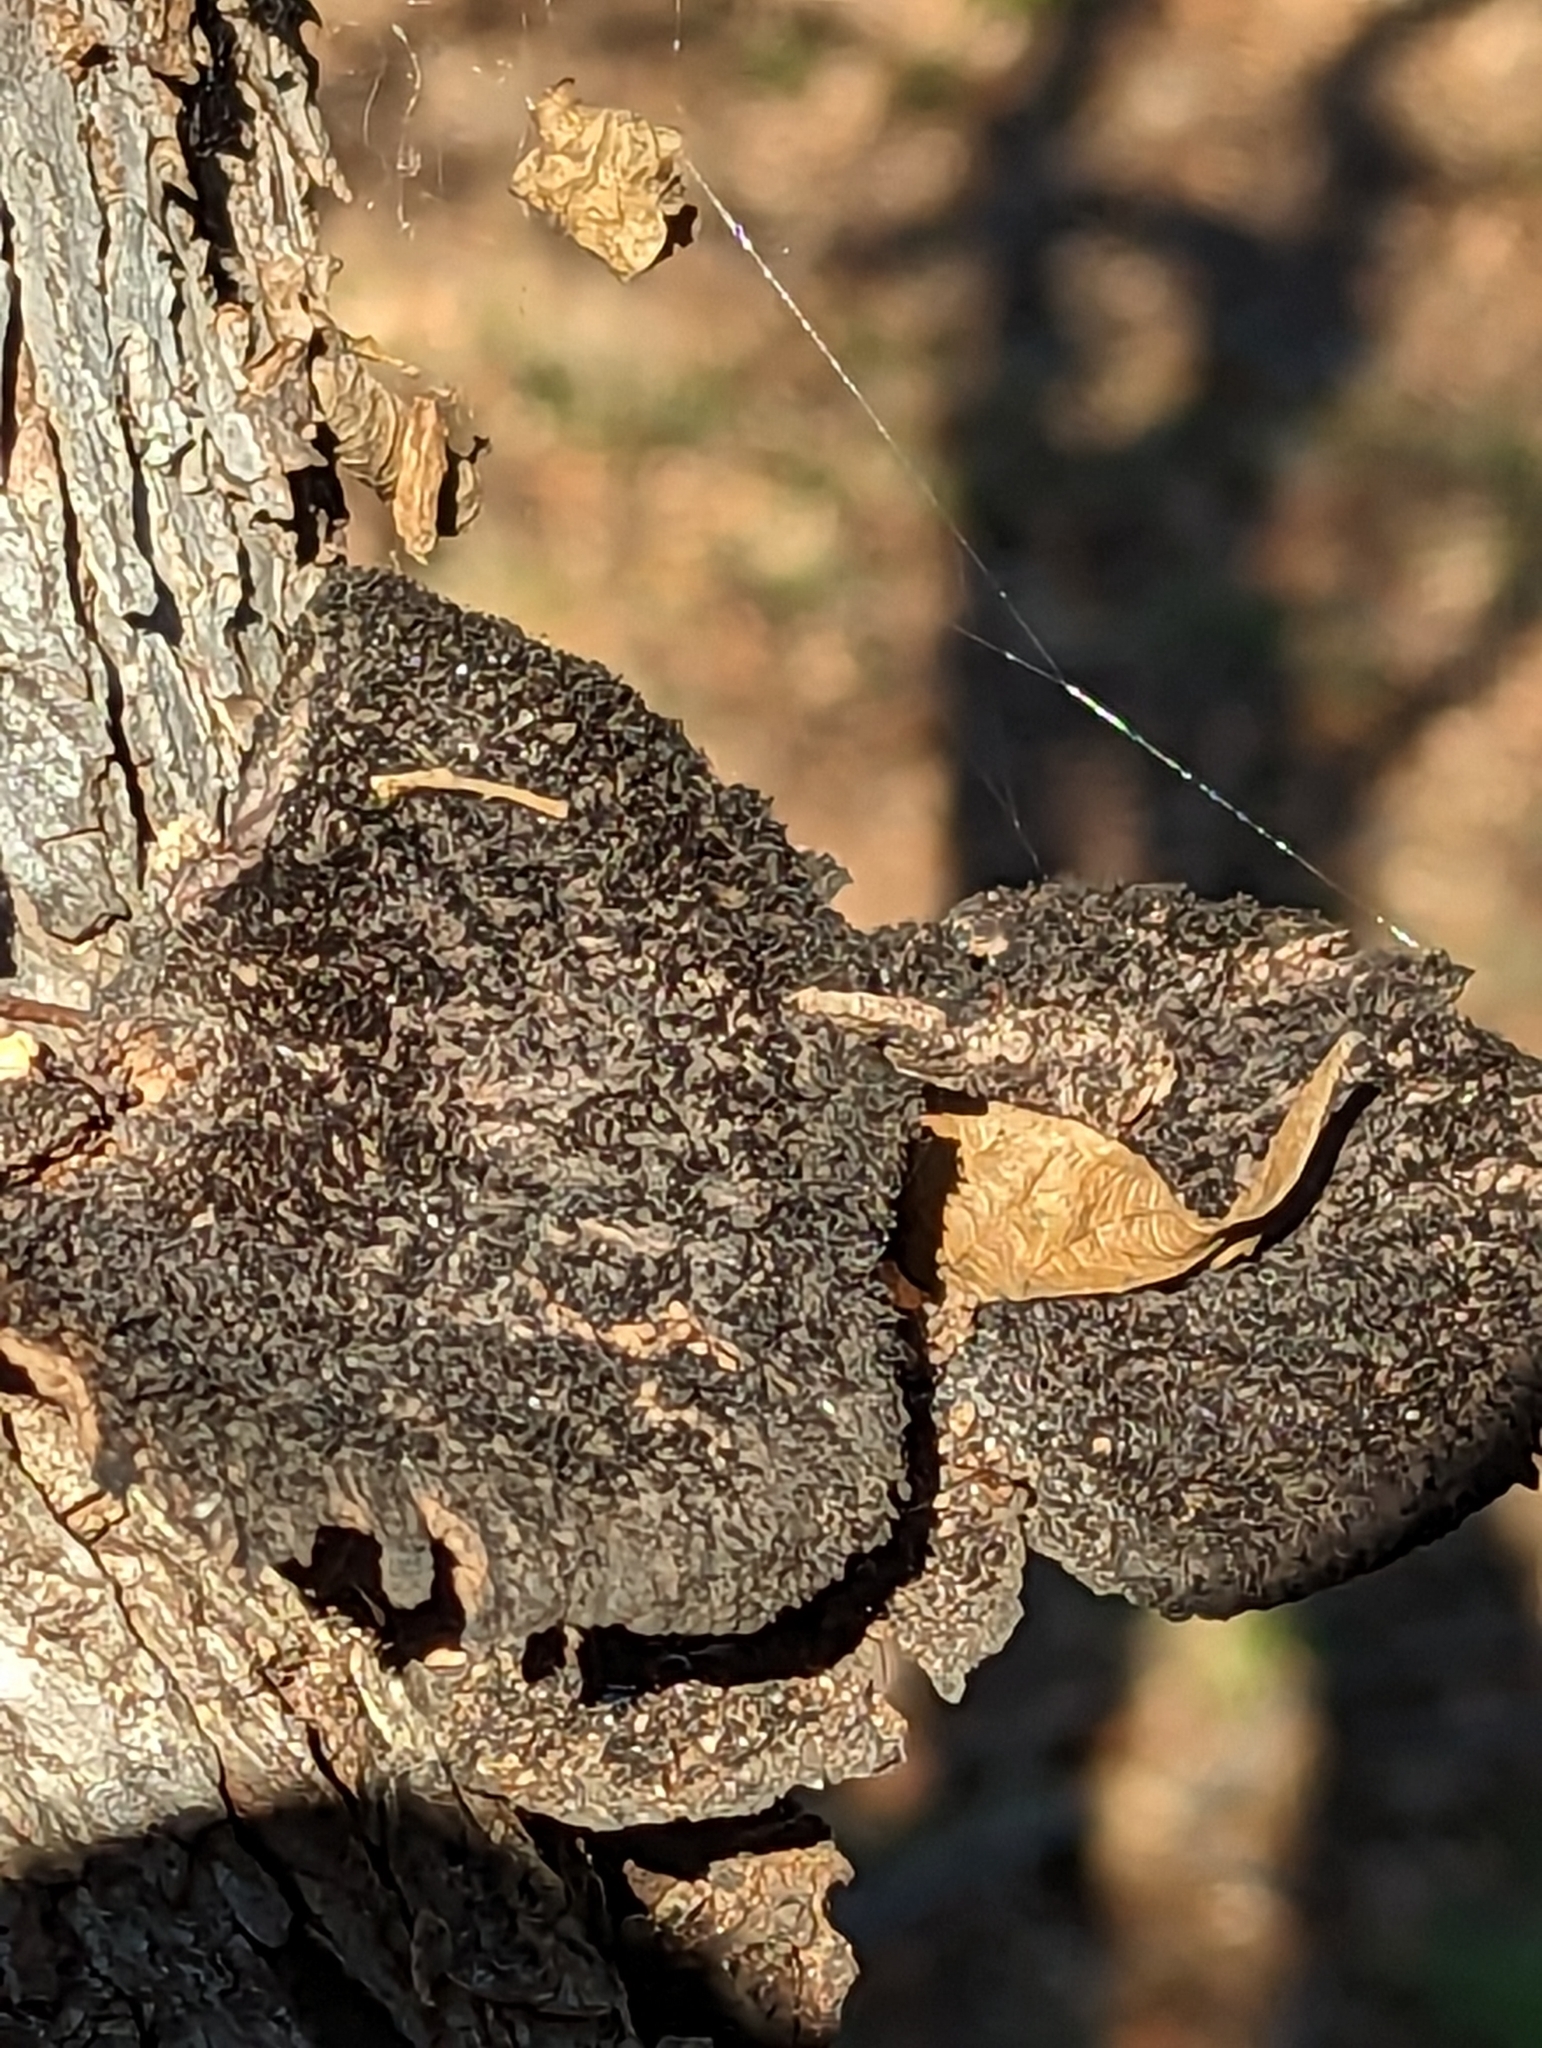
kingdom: Fungi
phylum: Basidiomycota
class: Agaricomycetes
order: Polyporales
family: Cerrenaceae
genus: Cerrena
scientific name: Cerrena hydnoides
